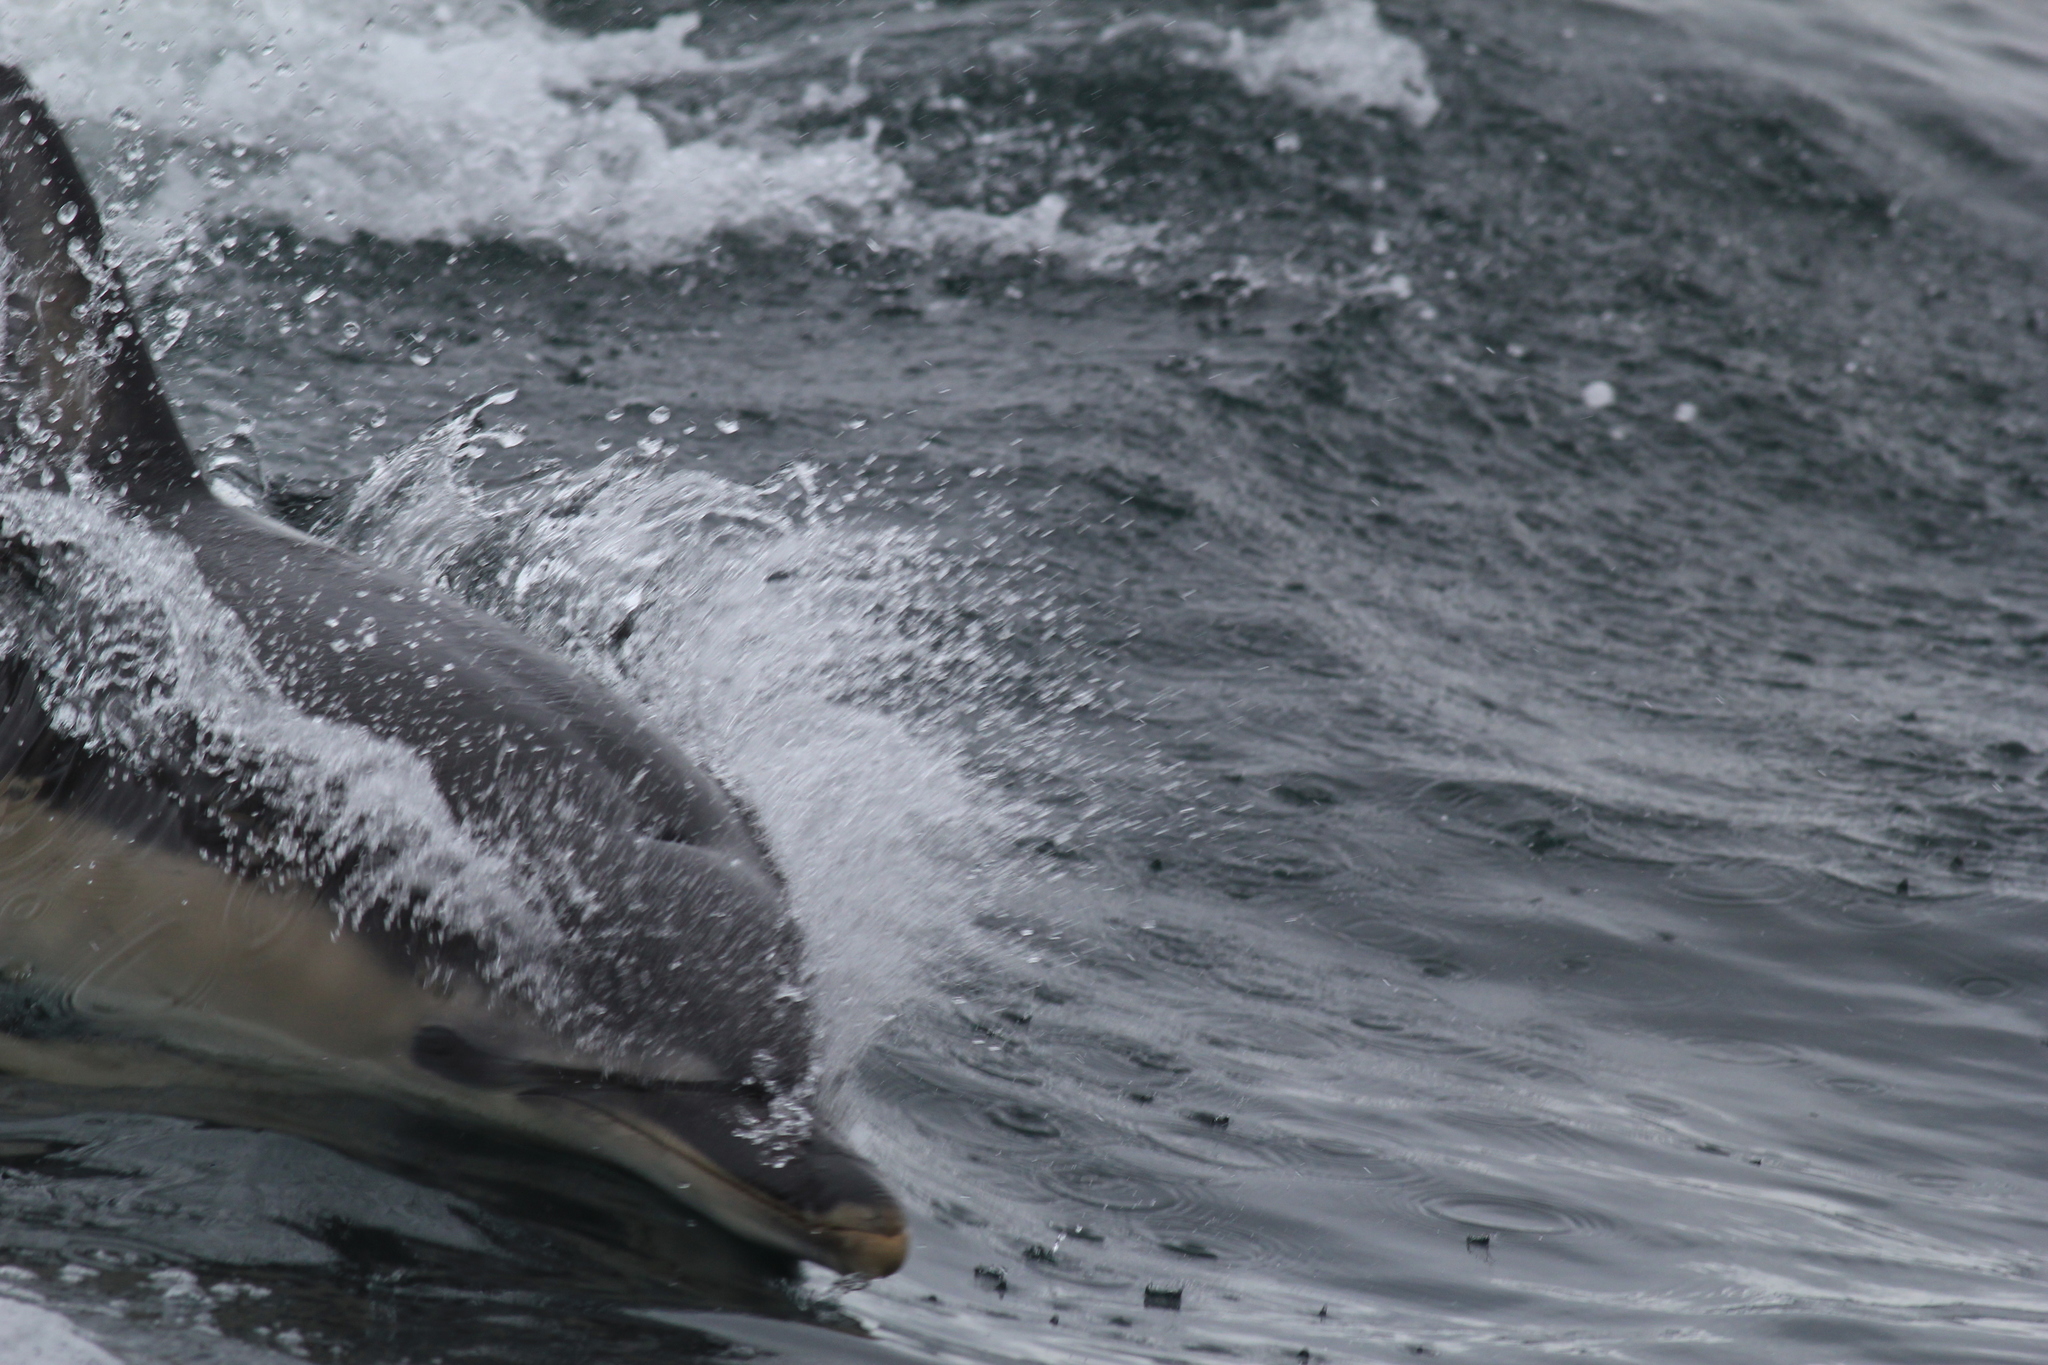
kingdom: Animalia
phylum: Chordata
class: Mammalia
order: Cetacea
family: Delphinidae
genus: Delphinus
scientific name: Delphinus delphis
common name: Common dolphin
